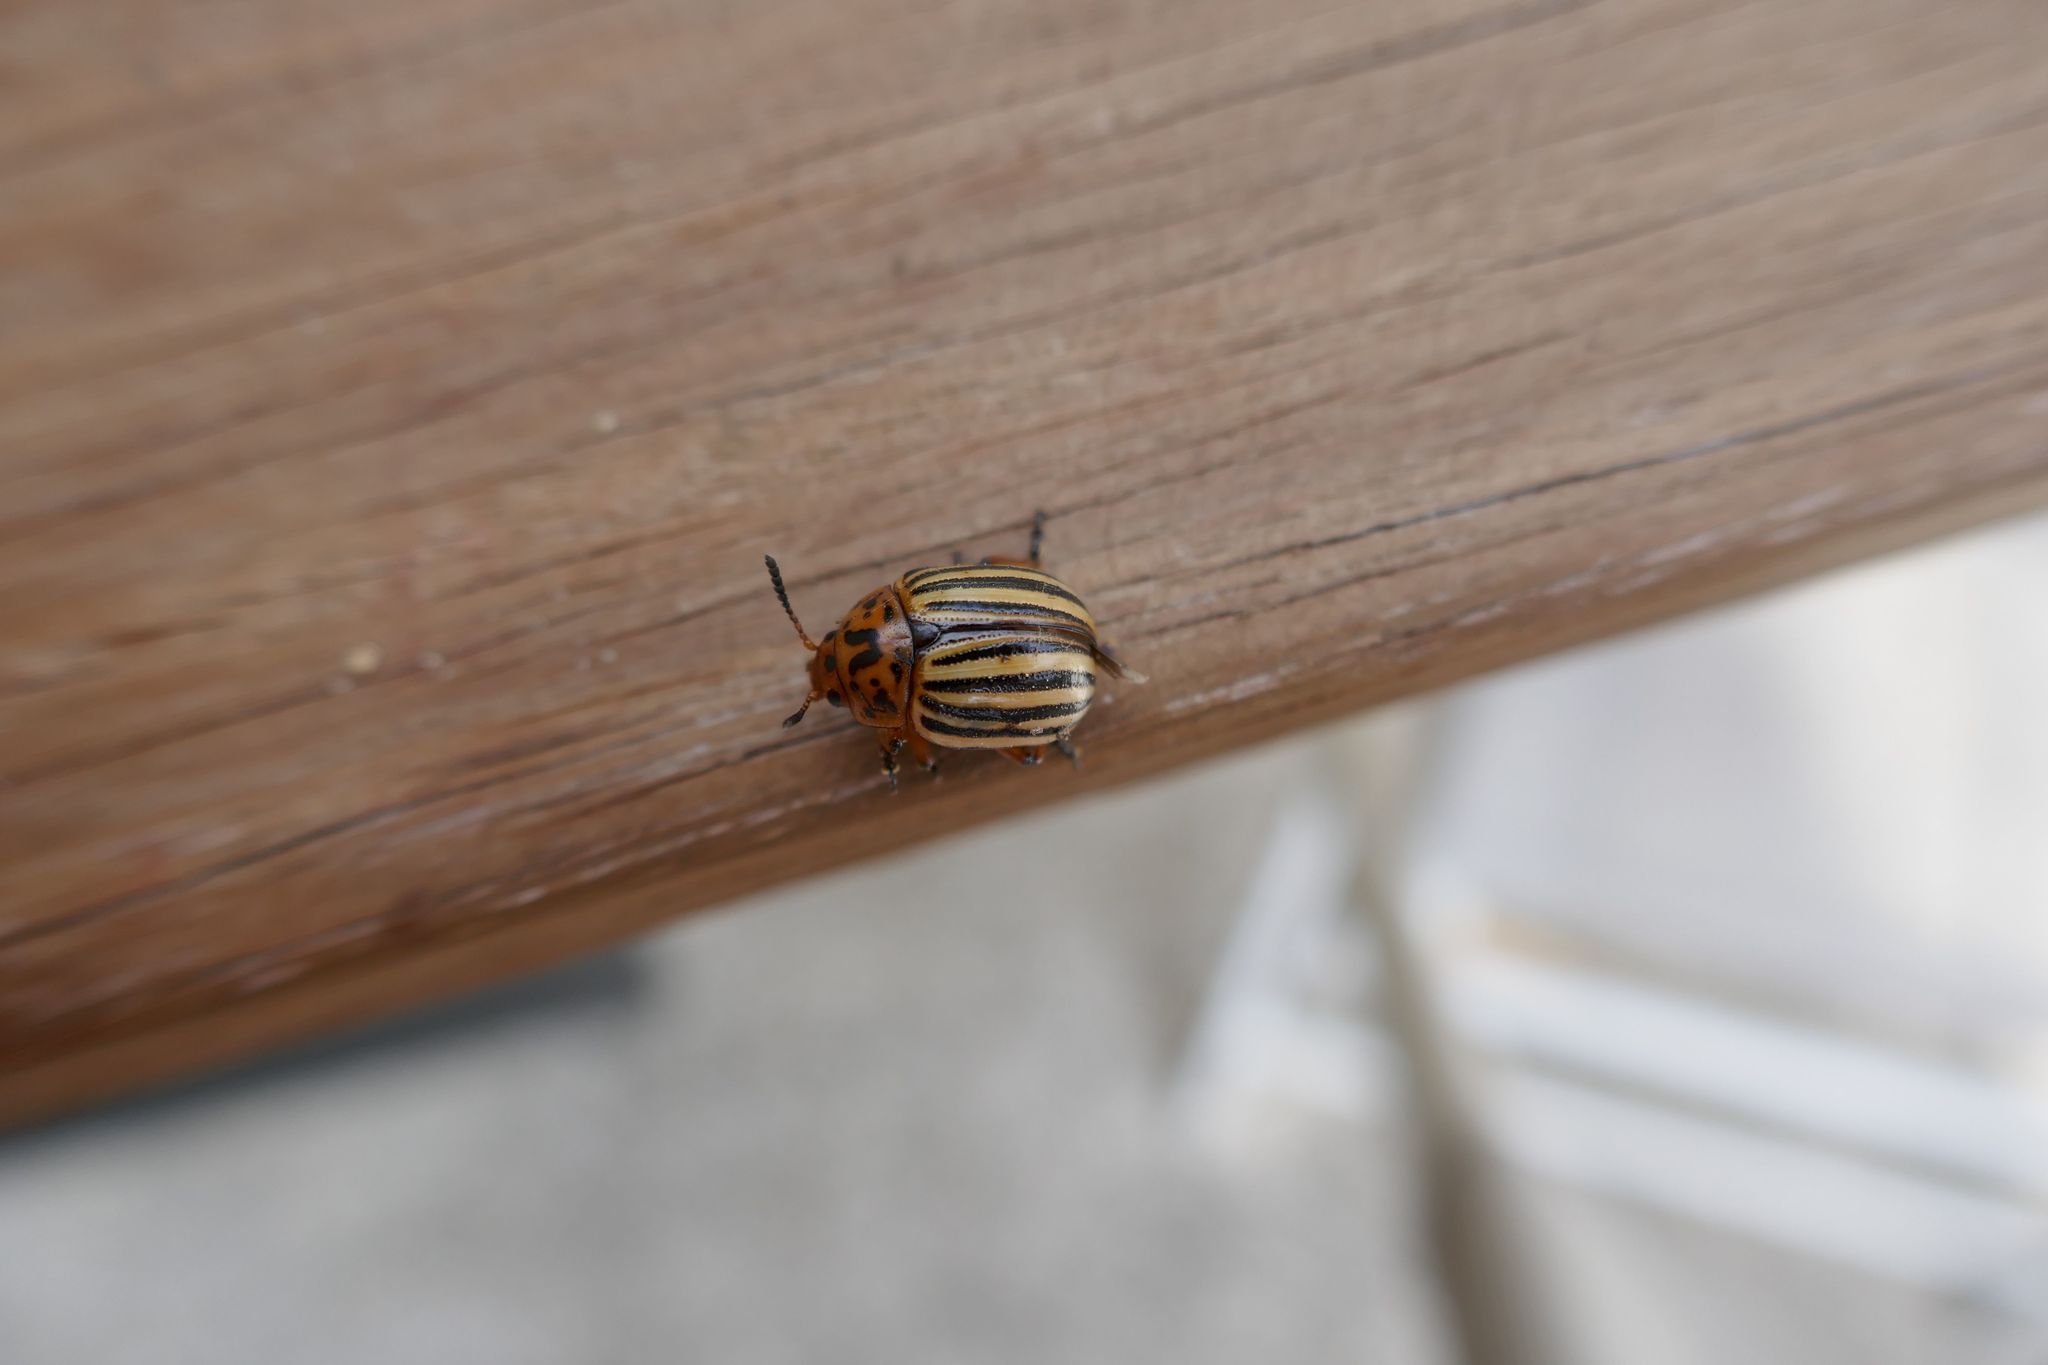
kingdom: Animalia
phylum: Arthropoda
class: Insecta
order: Coleoptera
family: Chrysomelidae
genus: Leptinotarsa
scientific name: Leptinotarsa decemlineata
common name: Colorado potato beetle
